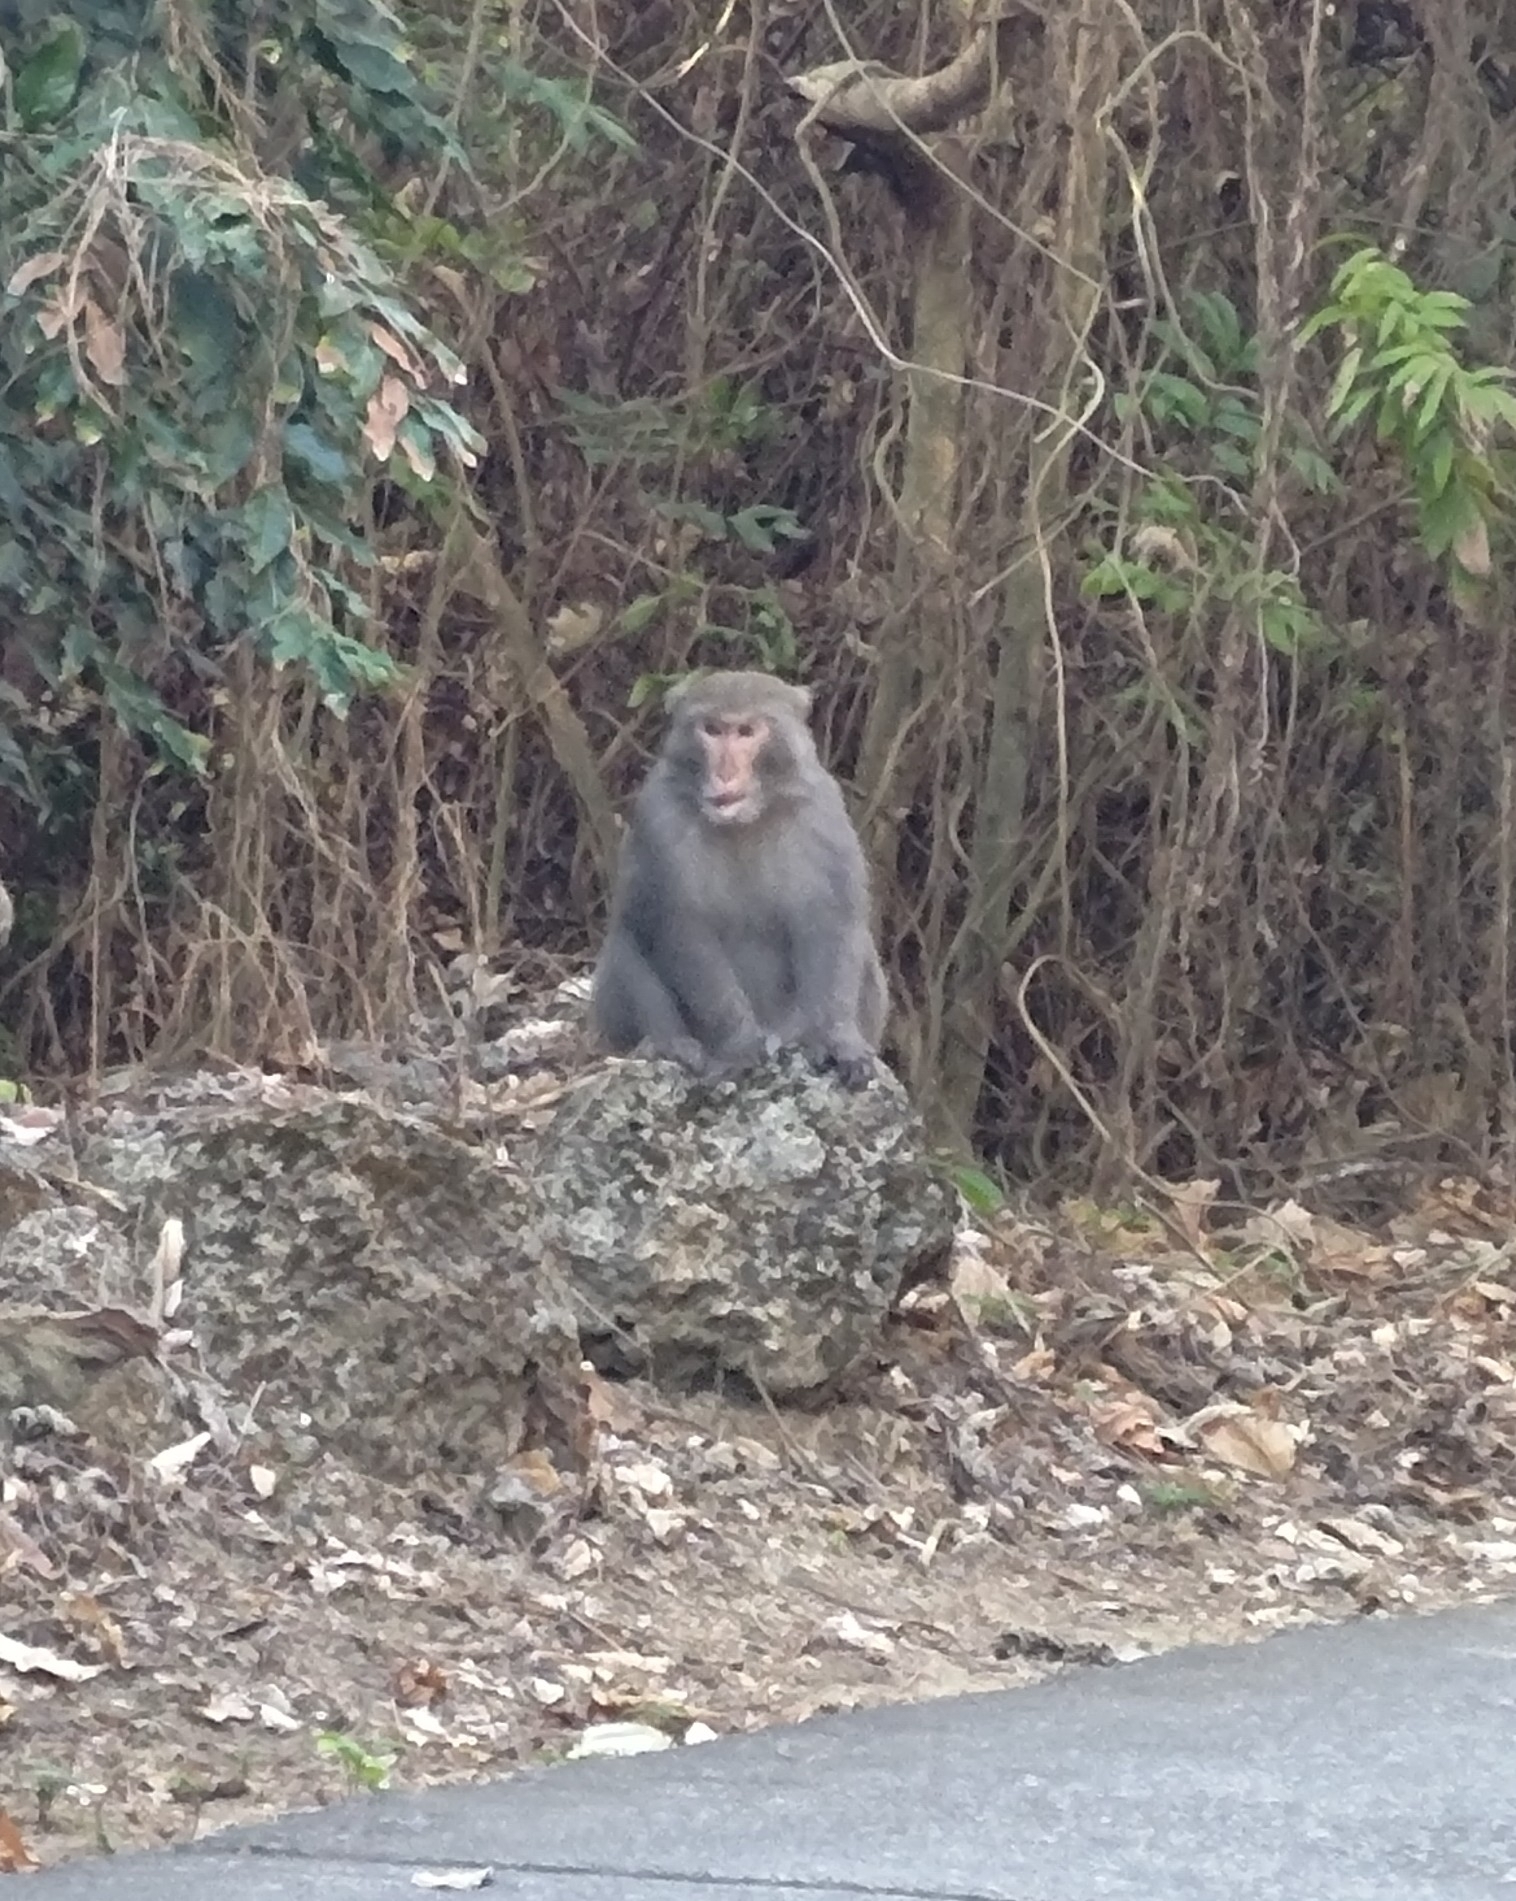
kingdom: Animalia
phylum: Chordata
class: Mammalia
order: Primates
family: Cercopithecidae
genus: Macaca
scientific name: Macaca cyclopis
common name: Formosan rock macaque
